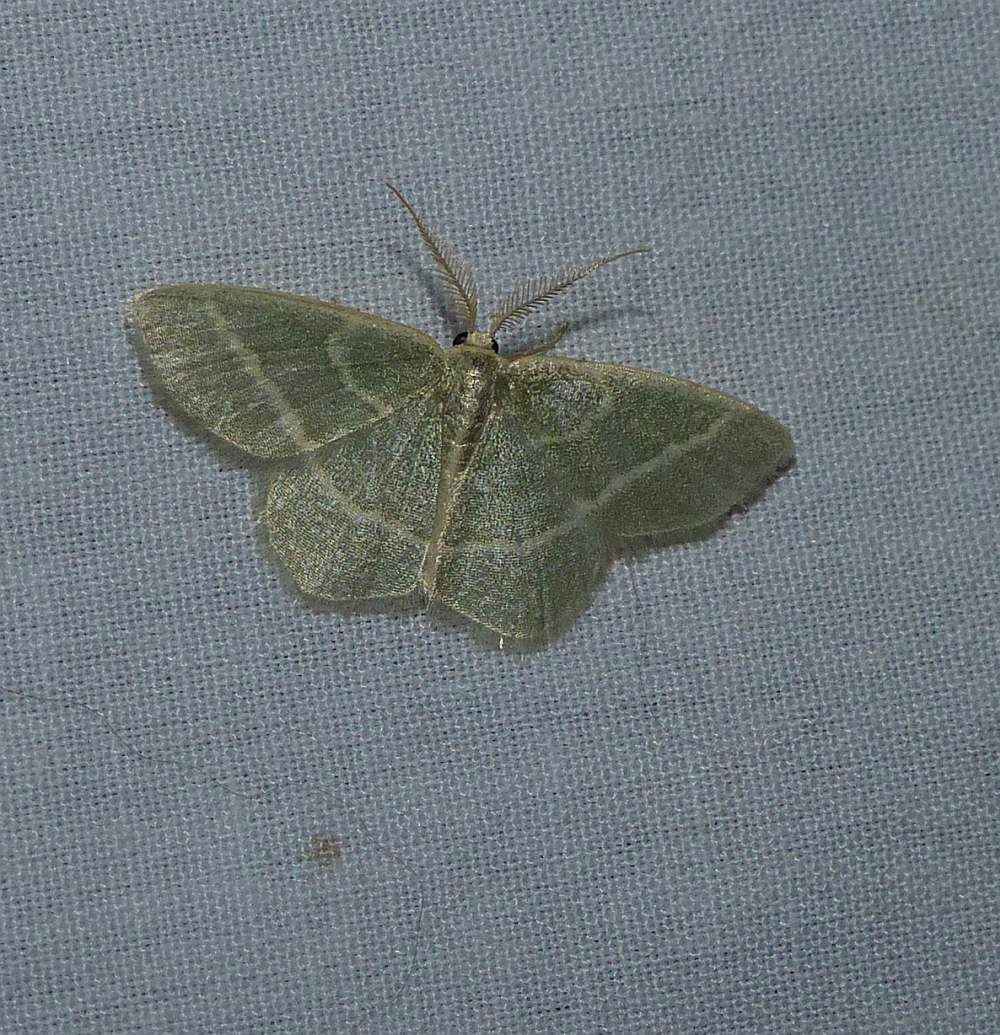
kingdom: Animalia
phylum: Arthropoda
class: Insecta
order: Lepidoptera
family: Geometridae
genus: Chlorochlamys
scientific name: Chlorochlamys chloroleucaria
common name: Blackberry looper
